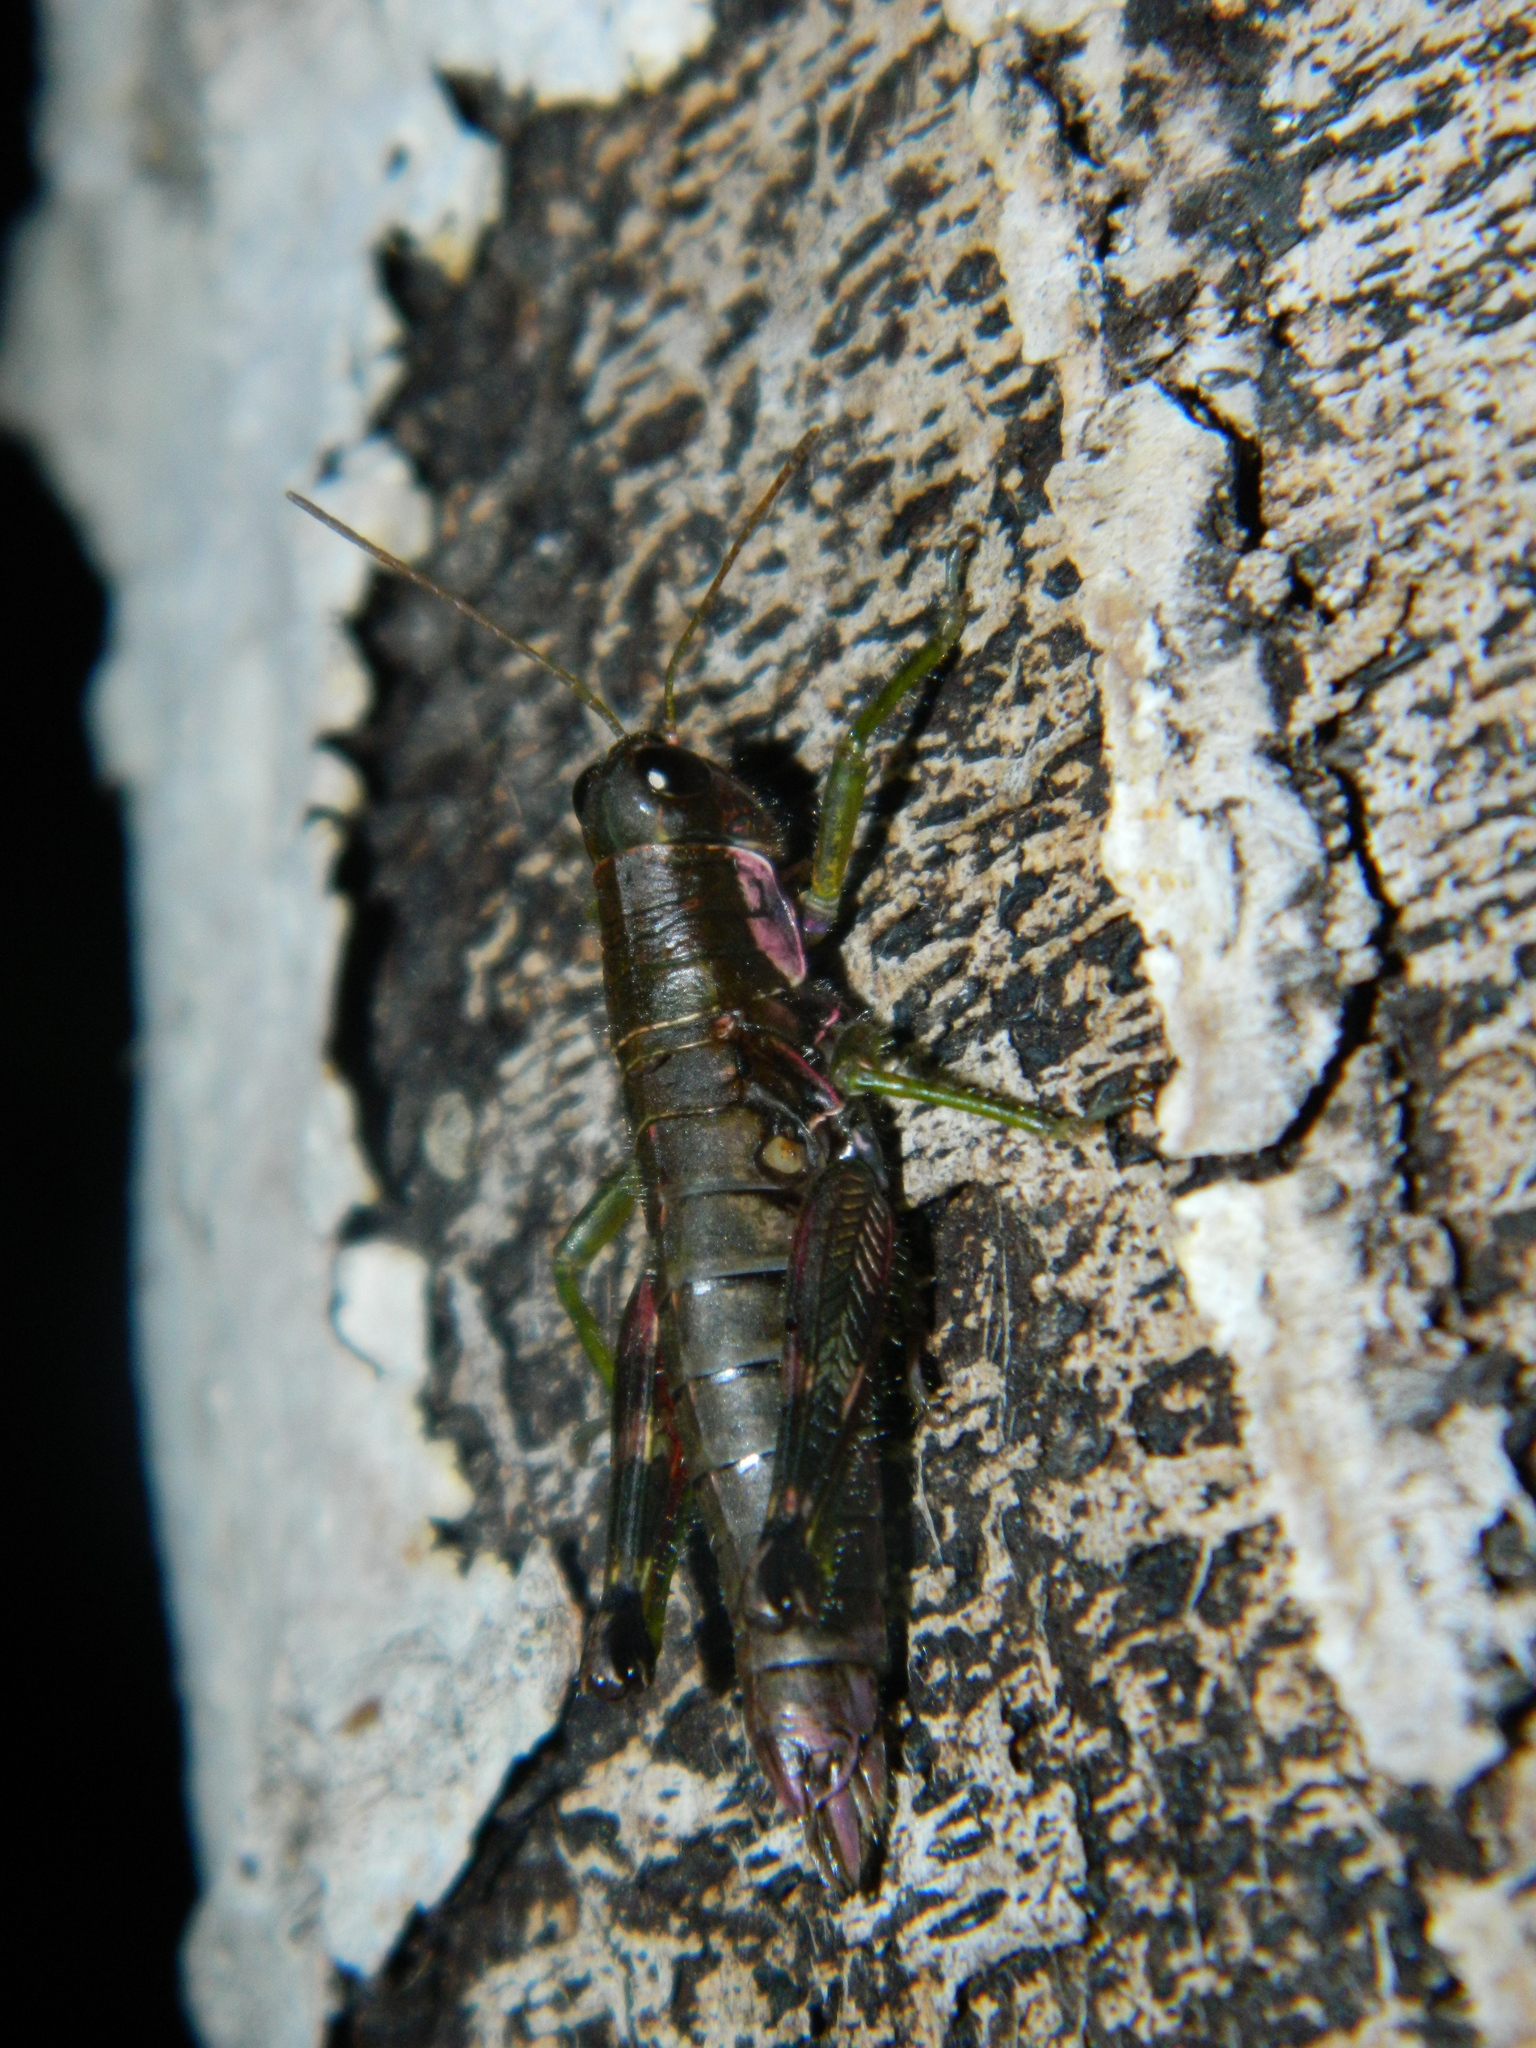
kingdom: Animalia
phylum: Arthropoda
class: Insecta
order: Orthoptera
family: Acrididae
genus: Booneacris
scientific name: Booneacris glacialis
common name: Wingless mountain grasshopper
